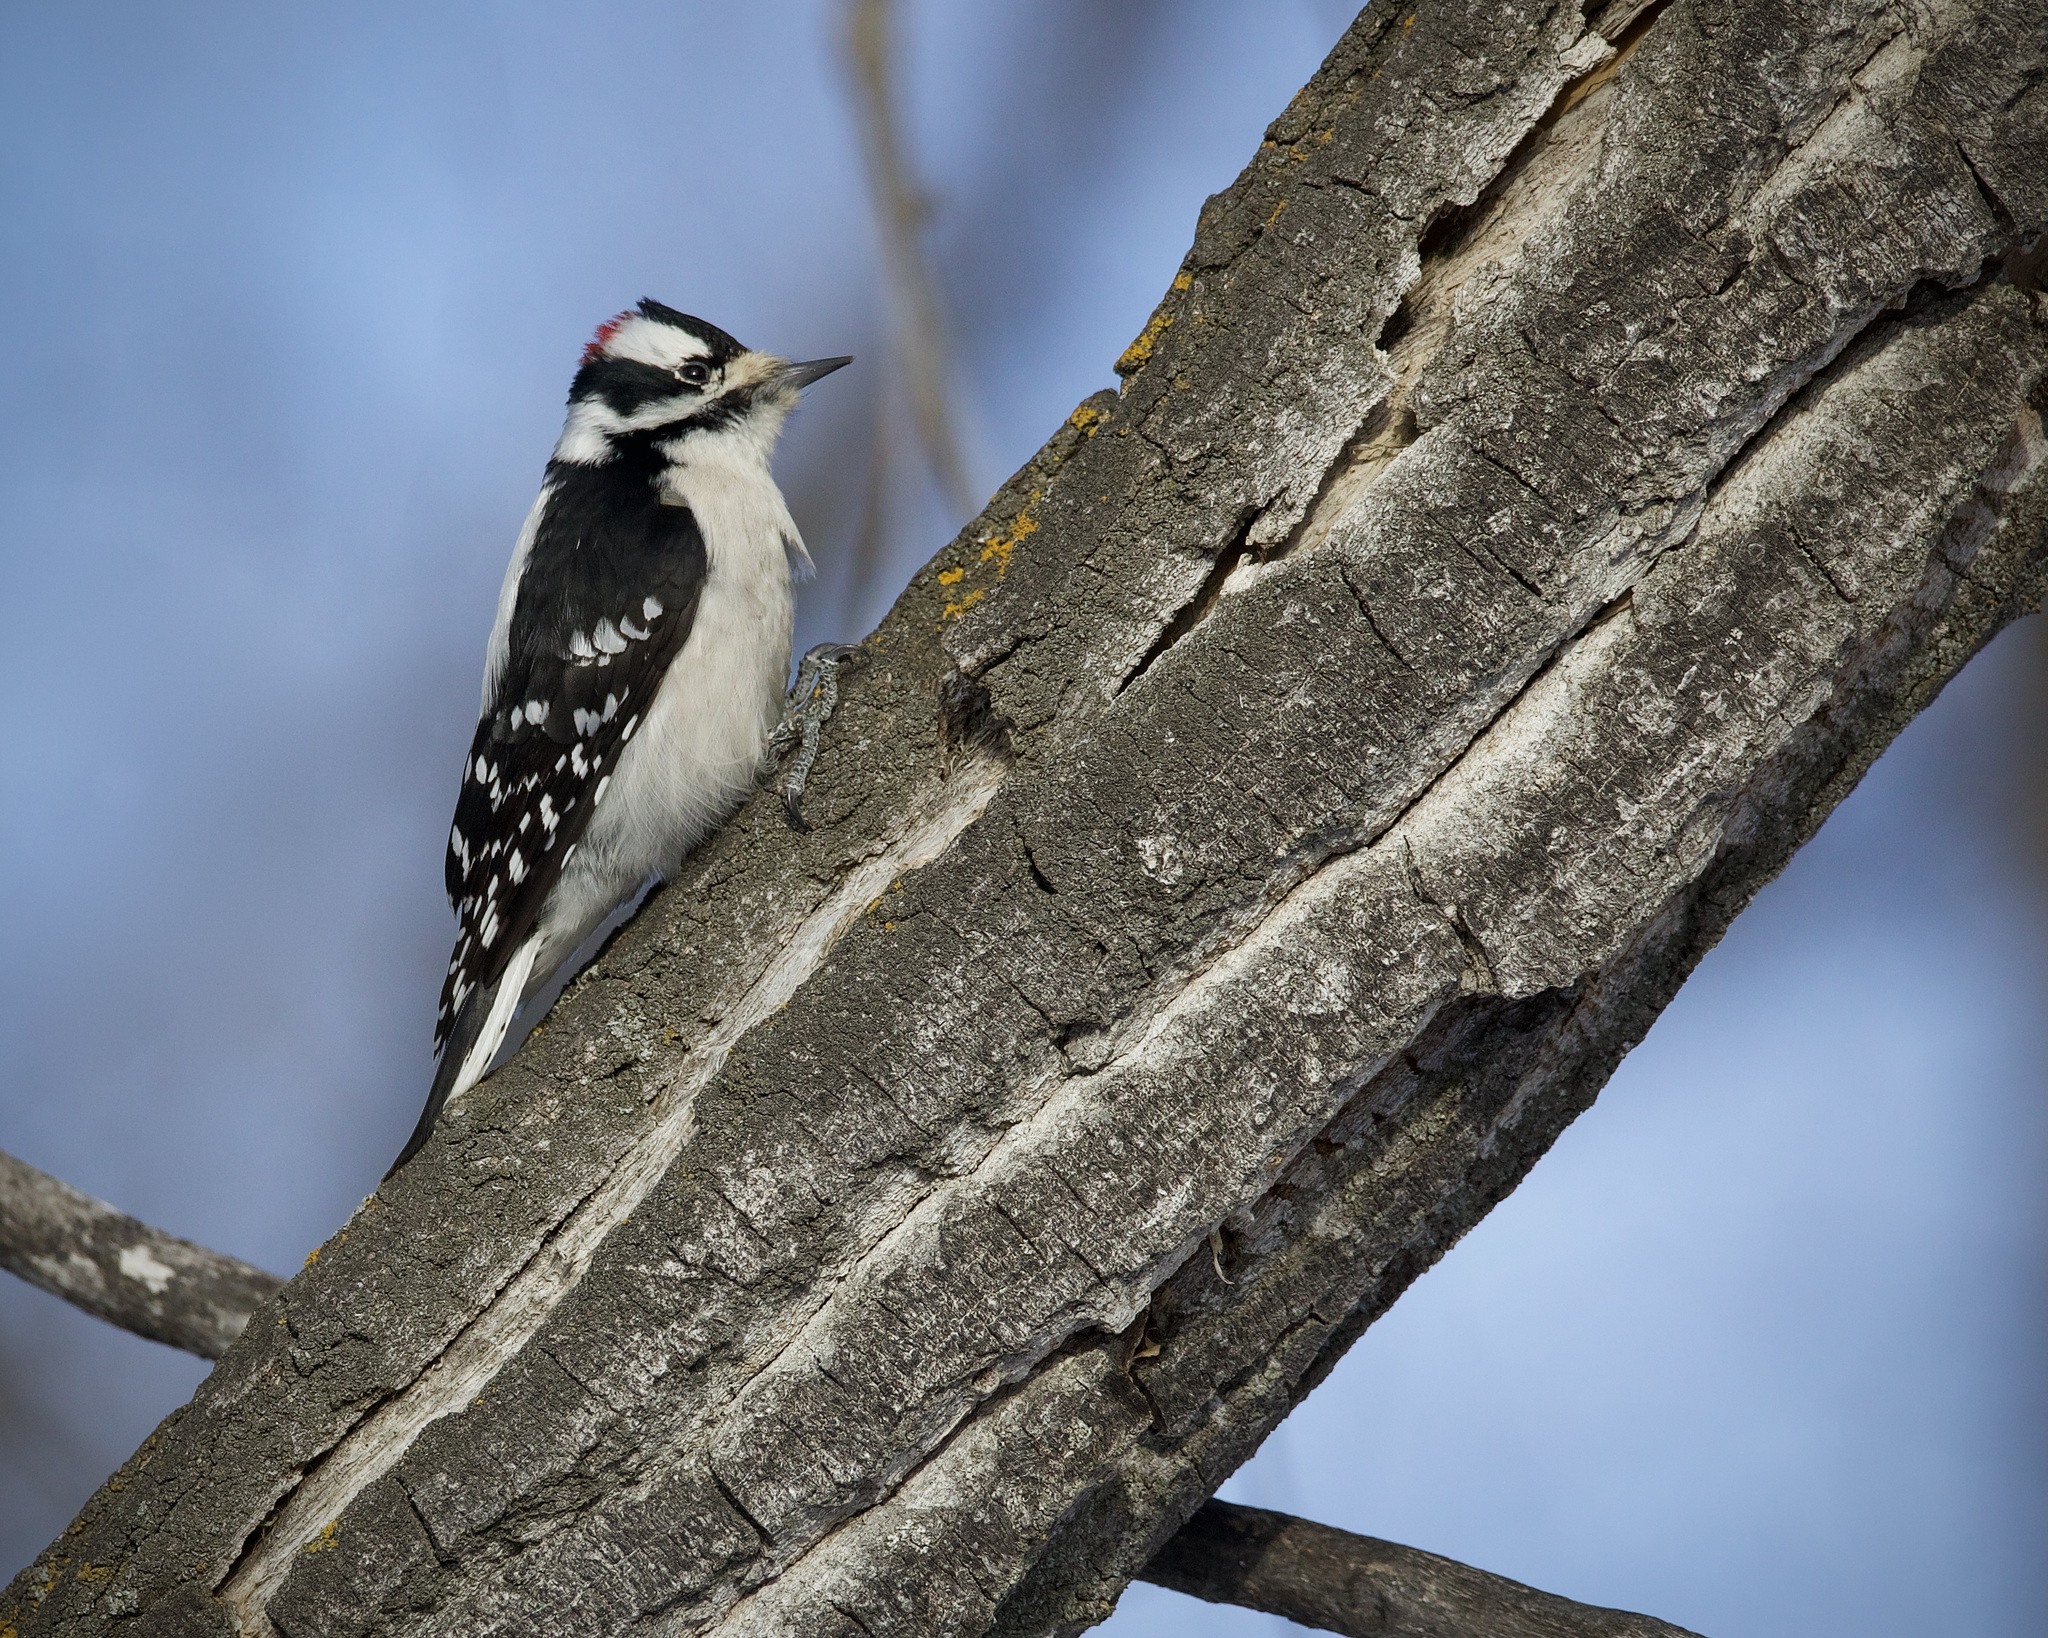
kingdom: Animalia
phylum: Chordata
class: Aves
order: Piciformes
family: Picidae
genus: Dryobates
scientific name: Dryobates pubescens
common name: Downy woodpecker
